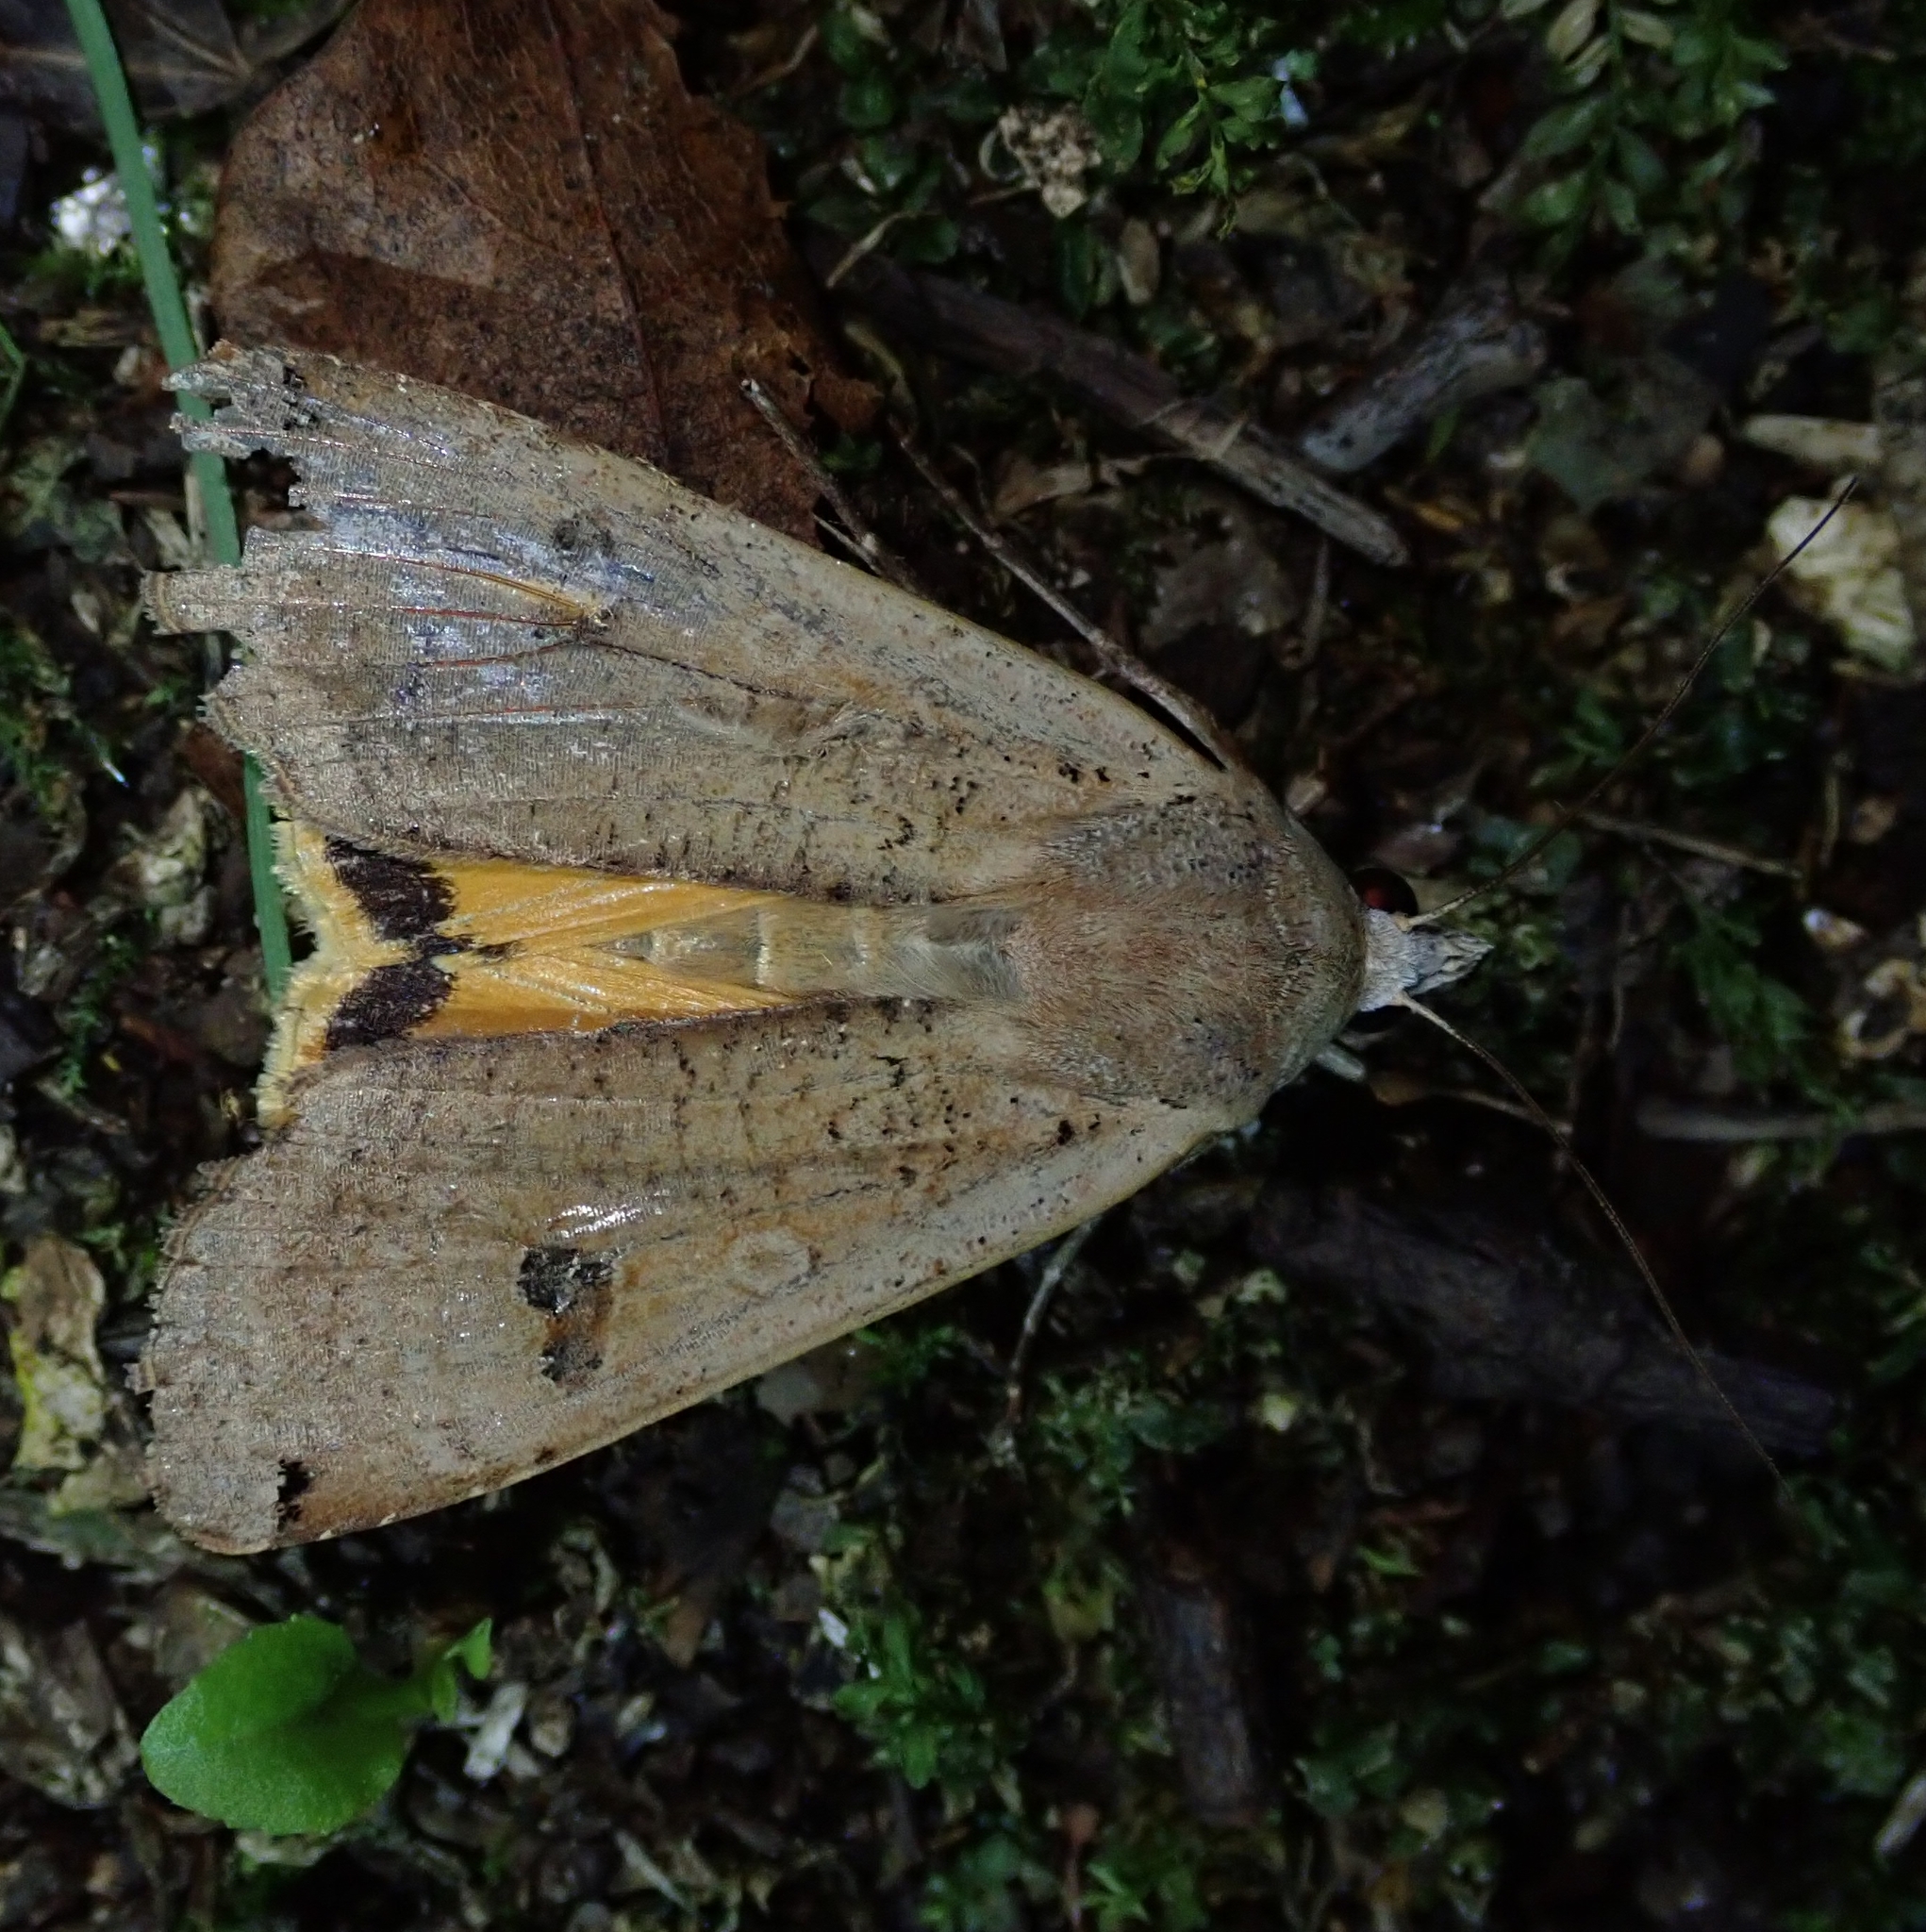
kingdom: Animalia
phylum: Arthropoda
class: Insecta
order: Lepidoptera
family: Noctuidae
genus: Noctua
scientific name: Noctua pronuba
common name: Large yellow underwing
